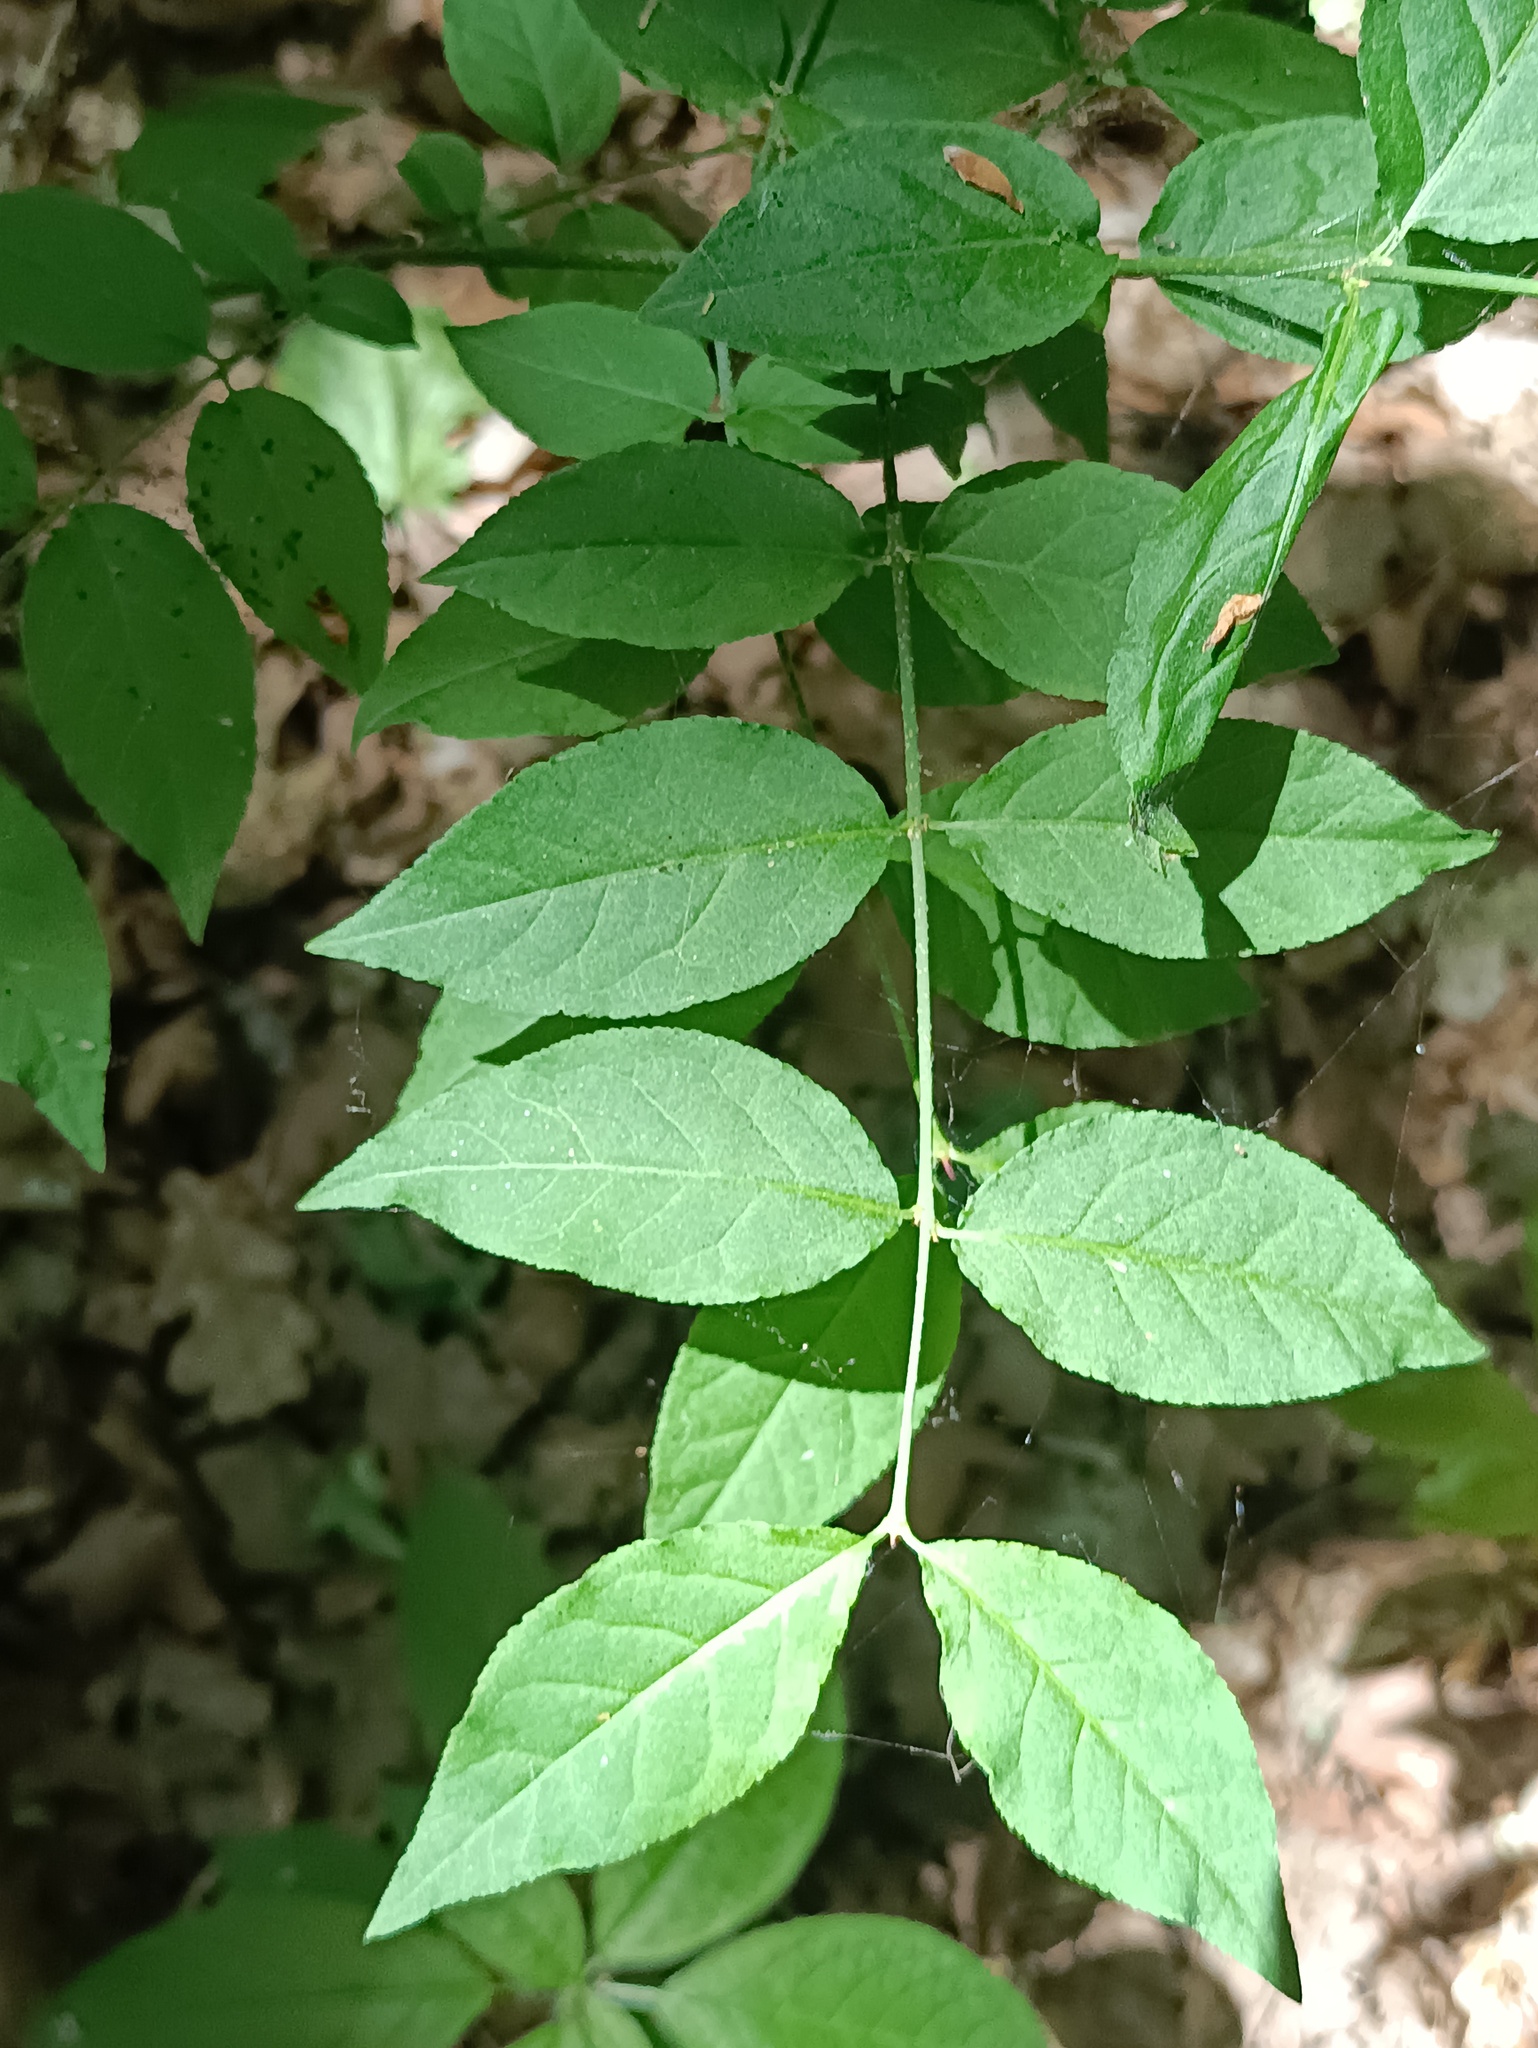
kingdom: Plantae
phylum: Tracheophyta
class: Magnoliopsida
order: Celastrales
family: Celastraceae
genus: Euonymus
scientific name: Euonymus verrucosus
